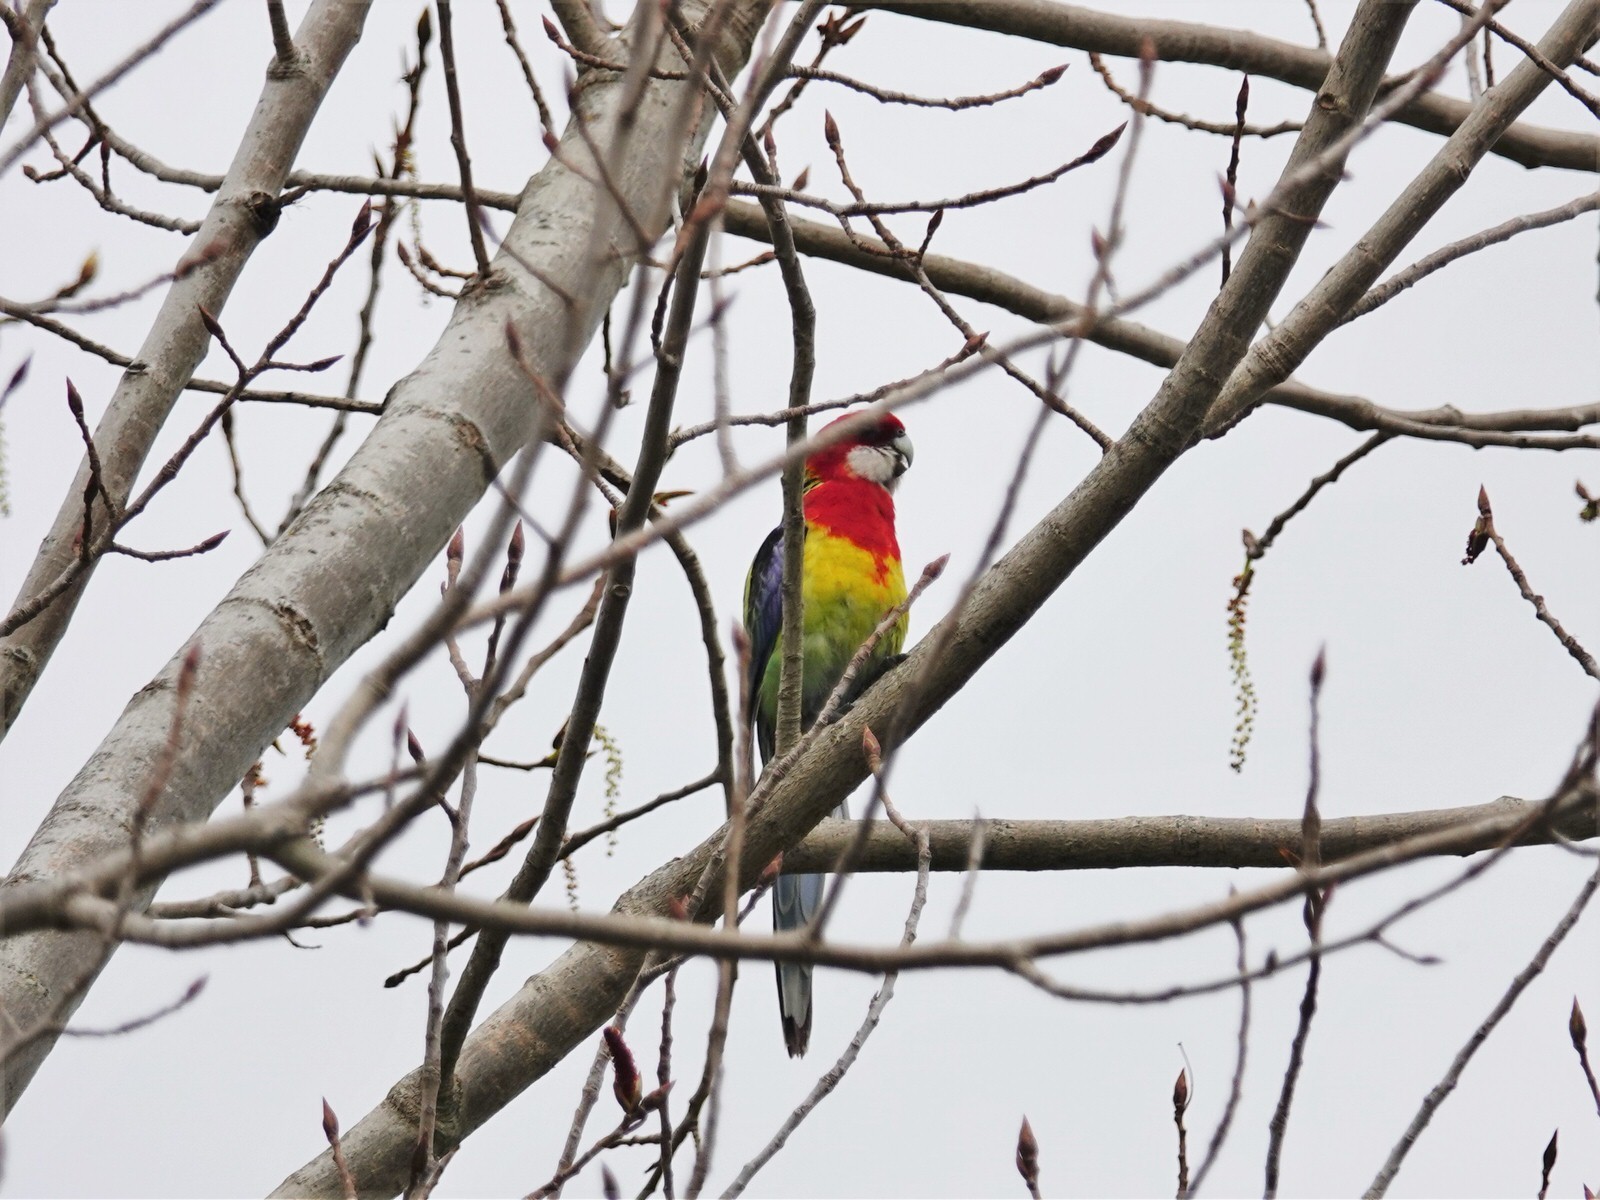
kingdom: Animalia
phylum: Chordata
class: Aves
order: Psittaciformes
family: Psittacidae
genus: Platycercus
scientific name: Platycercus eximius
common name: Eastern rosella
